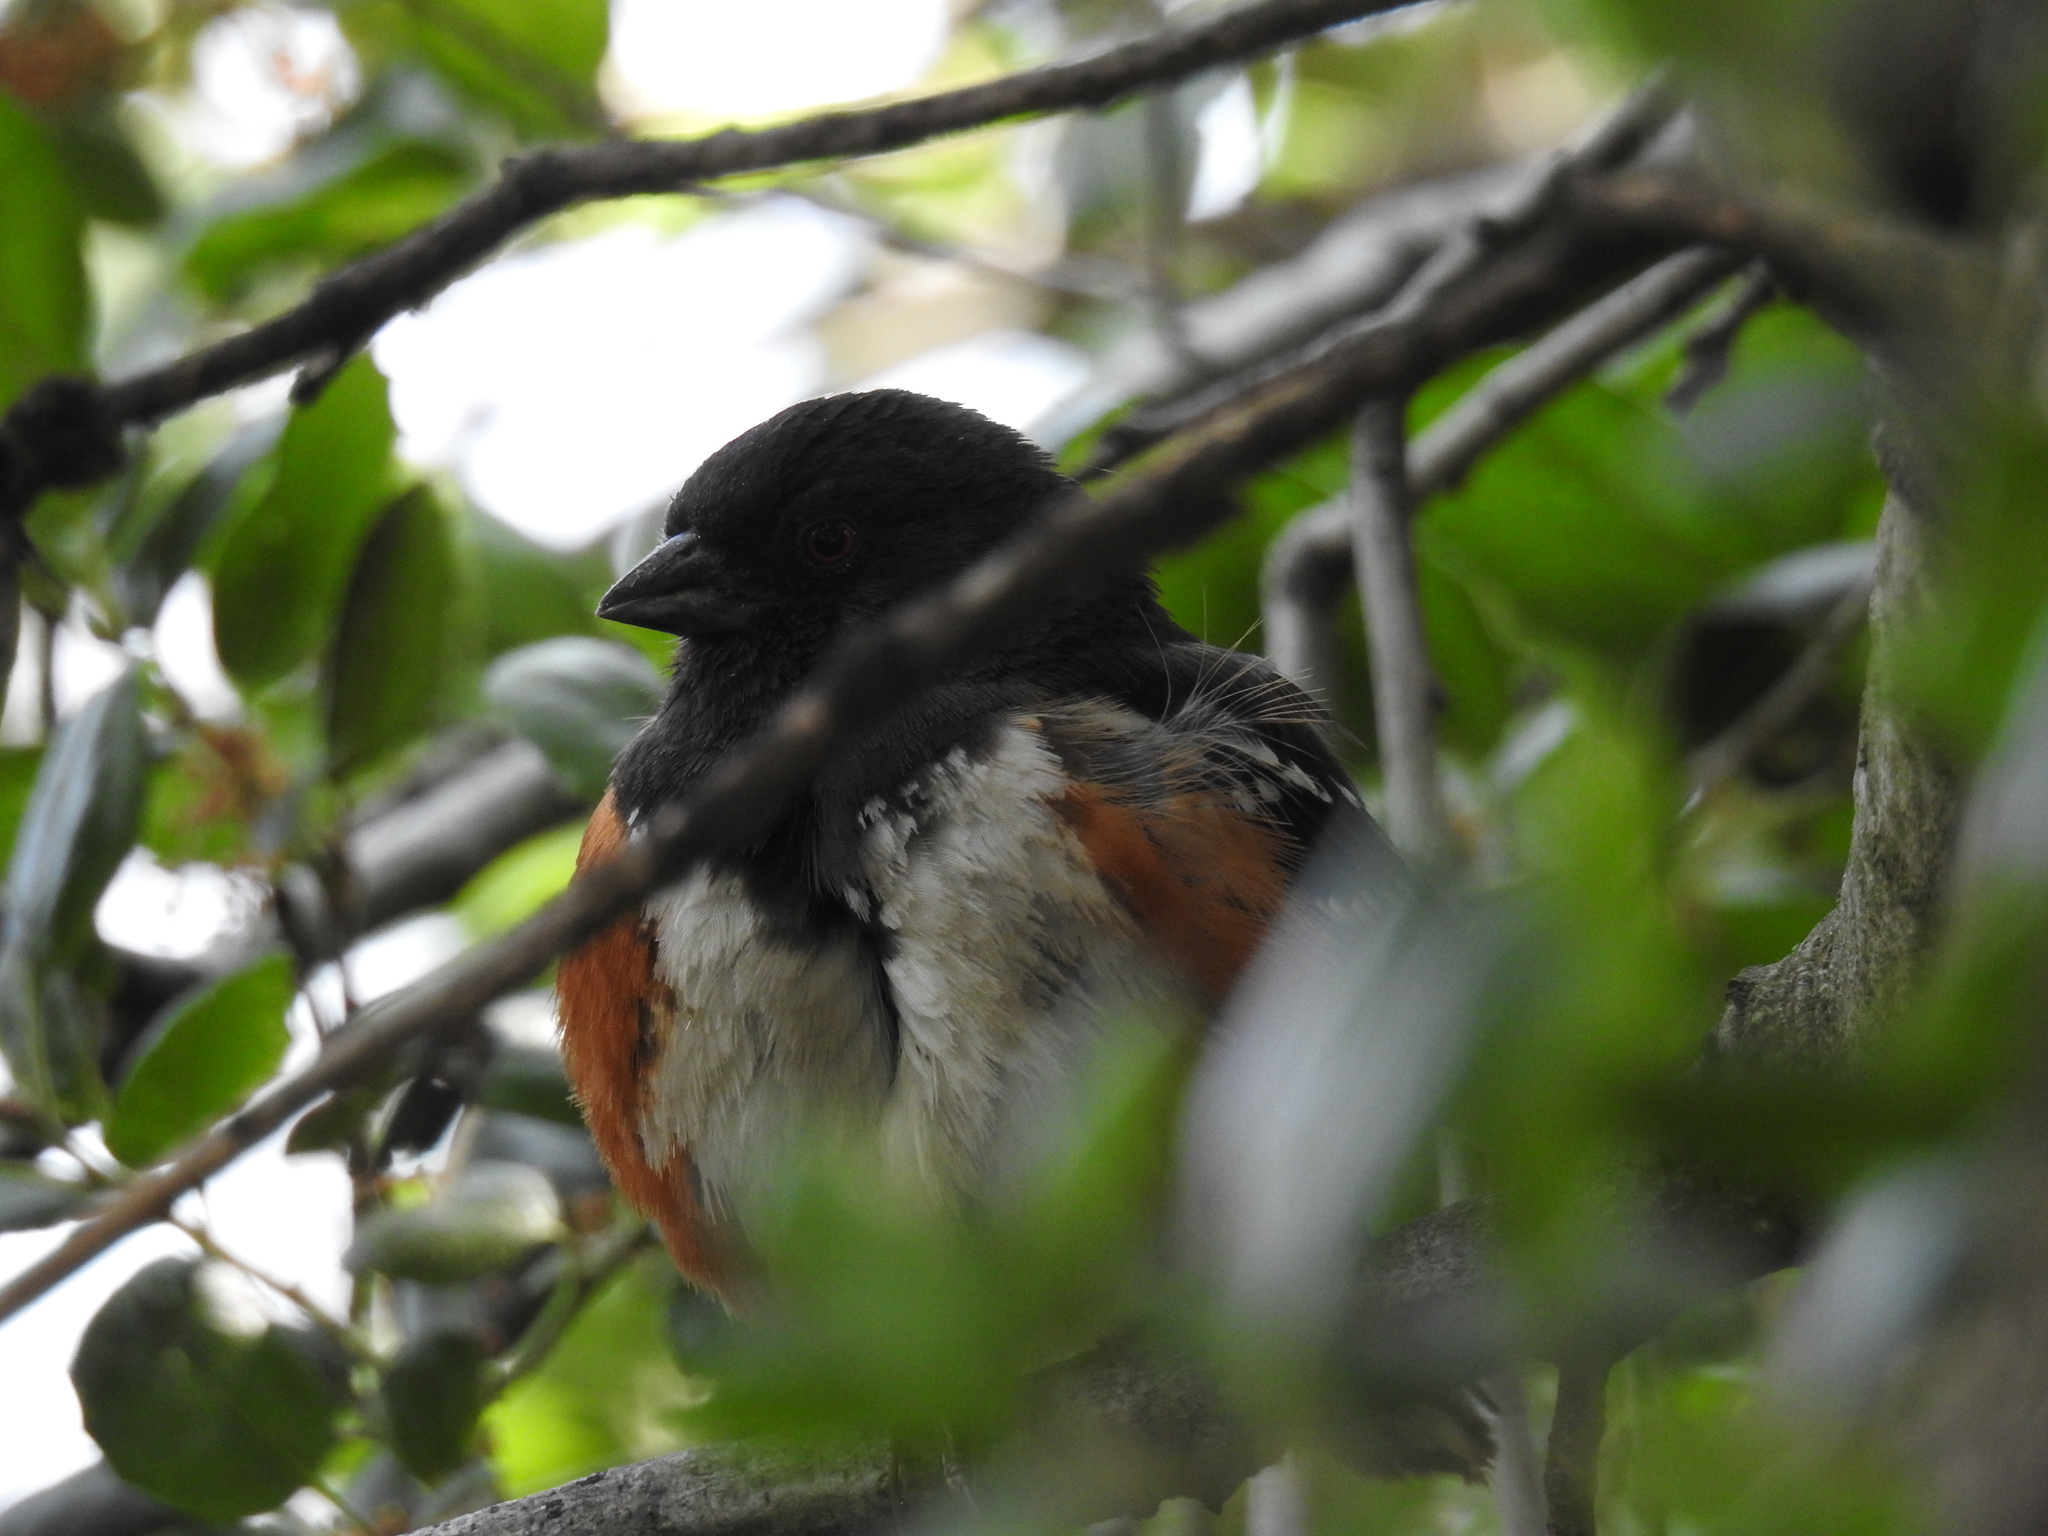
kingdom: Animalia
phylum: Chordata
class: Aves
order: Passeriformes
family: Passerellidae
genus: Pipilo
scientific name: Pipilo maculatus
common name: Spotted towhee
